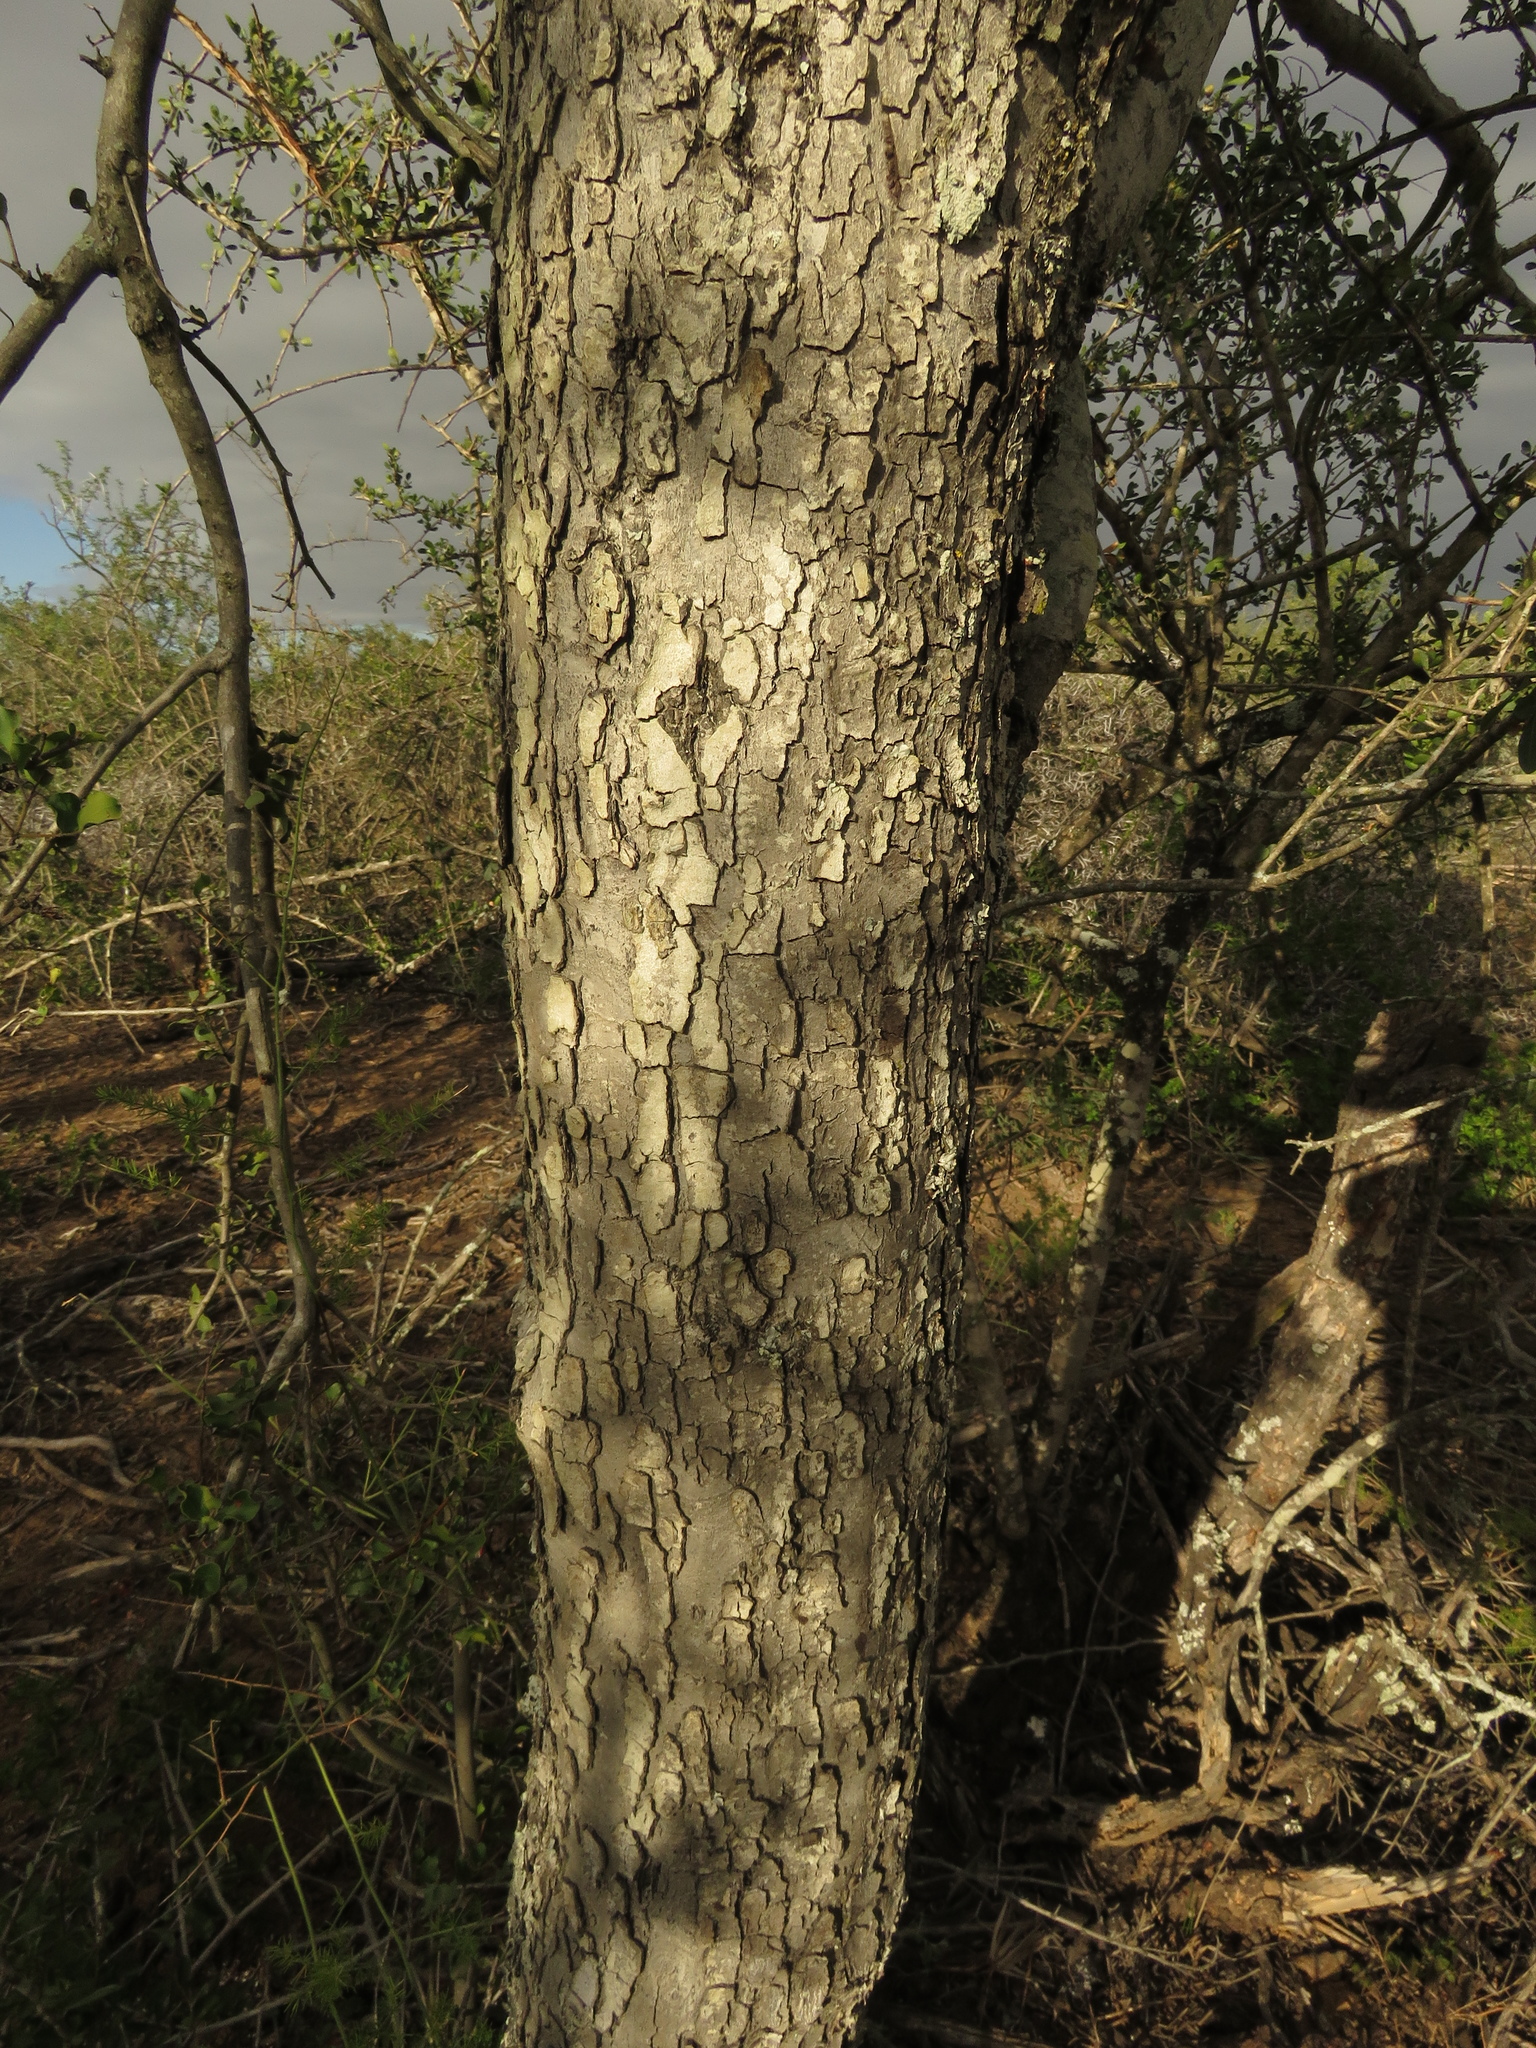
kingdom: Plantae
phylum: Tracheophyta
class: Magnoliopsida
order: Ericales
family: Ebenaceae
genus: Euclea
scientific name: Euclea undulata
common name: Small-leaved guarri
